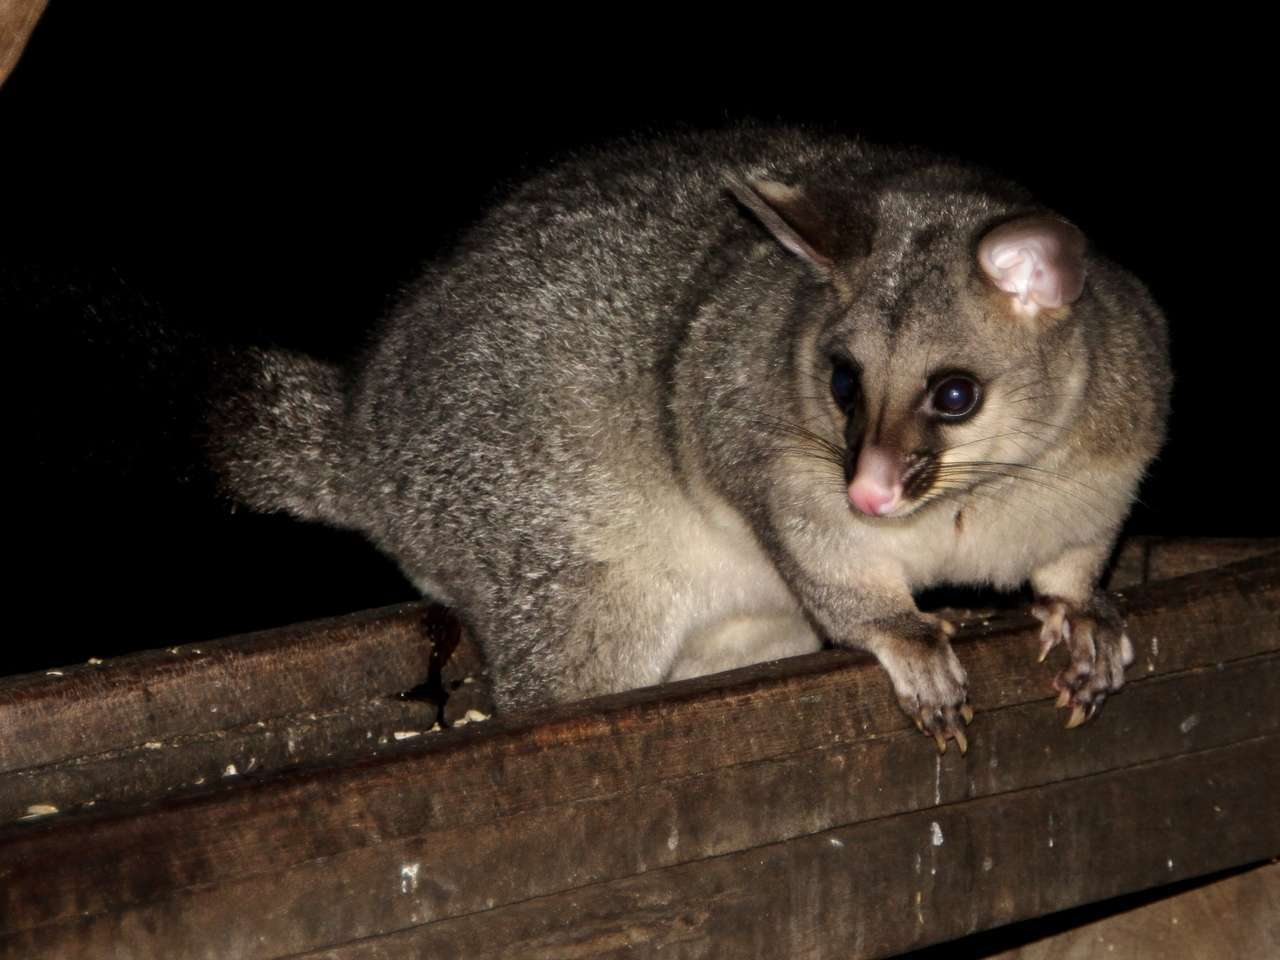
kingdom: Animalia
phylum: Chordata
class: Mammalia
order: Diprotodontia
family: Phalangeridae
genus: Trichosurus
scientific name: Trichosurus vulpecula
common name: Common brushtail
